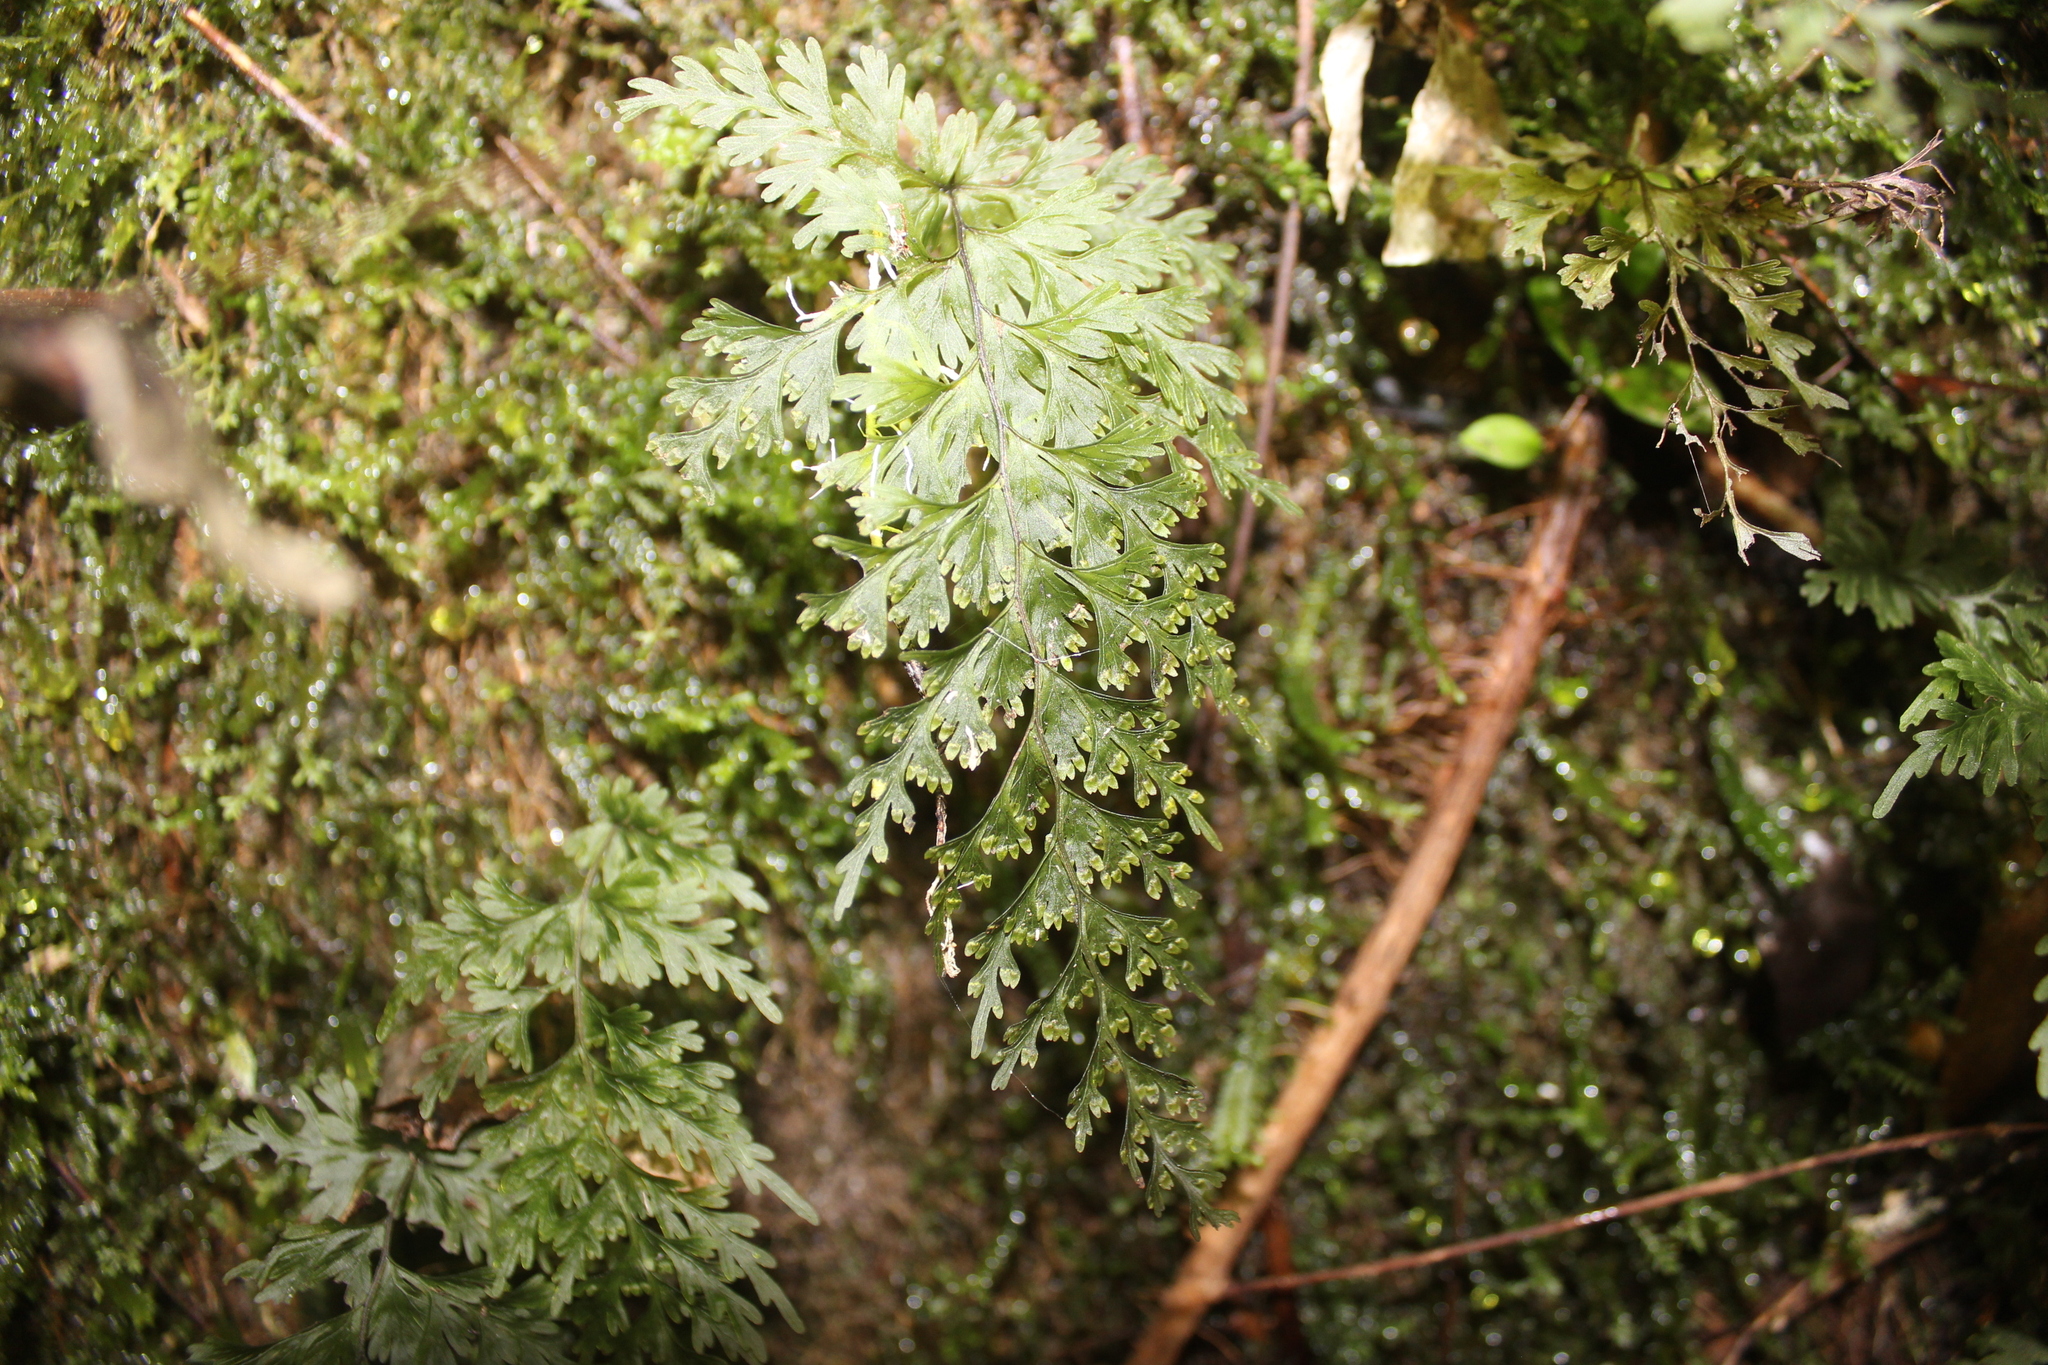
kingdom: Plantae
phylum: Tracheophyta
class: Polypodiopsida
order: Hymenophyllales
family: Hymenophyllaceae
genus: Hymenophyllum
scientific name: Hymenophyllum demissum
